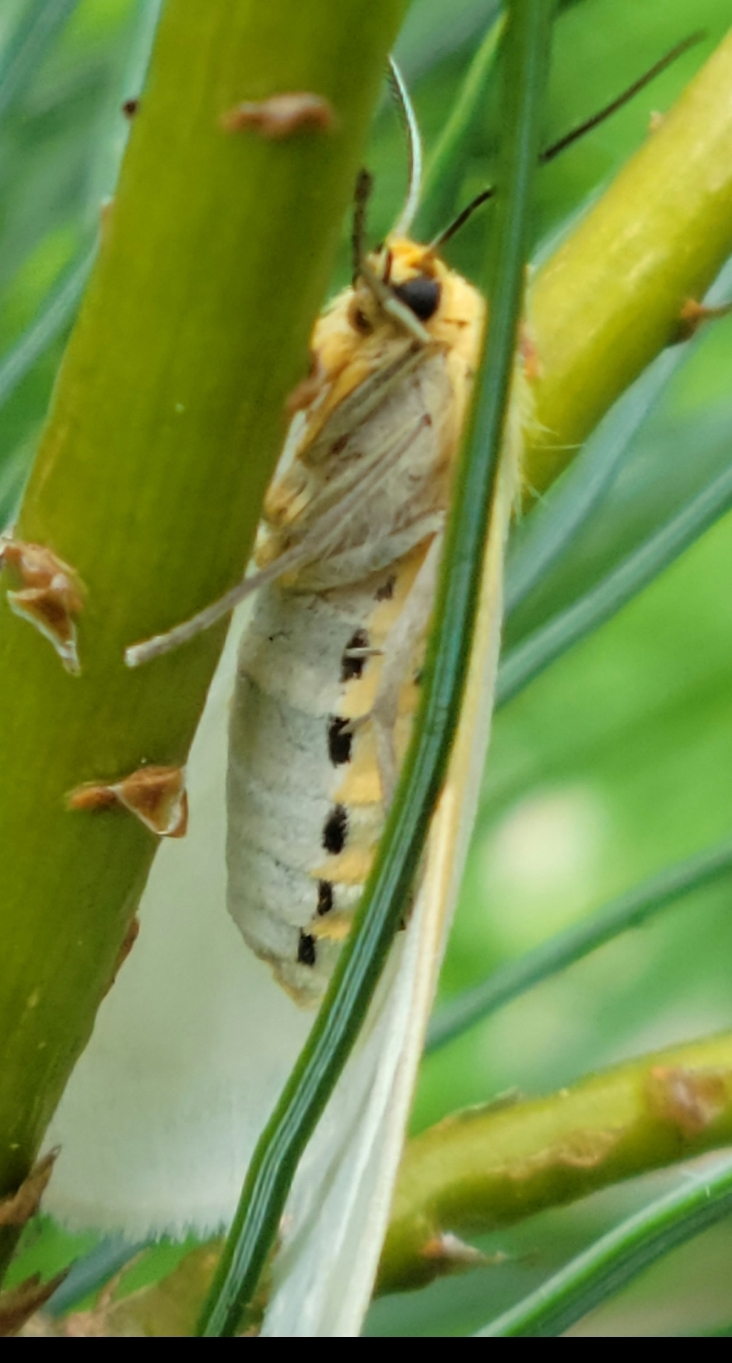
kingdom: Animalia
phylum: Arthropoda
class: Insecta
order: Lepidoptera
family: Erebidae
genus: Cycnia
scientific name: Cycnia tenera
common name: Delicate cycnia moth
